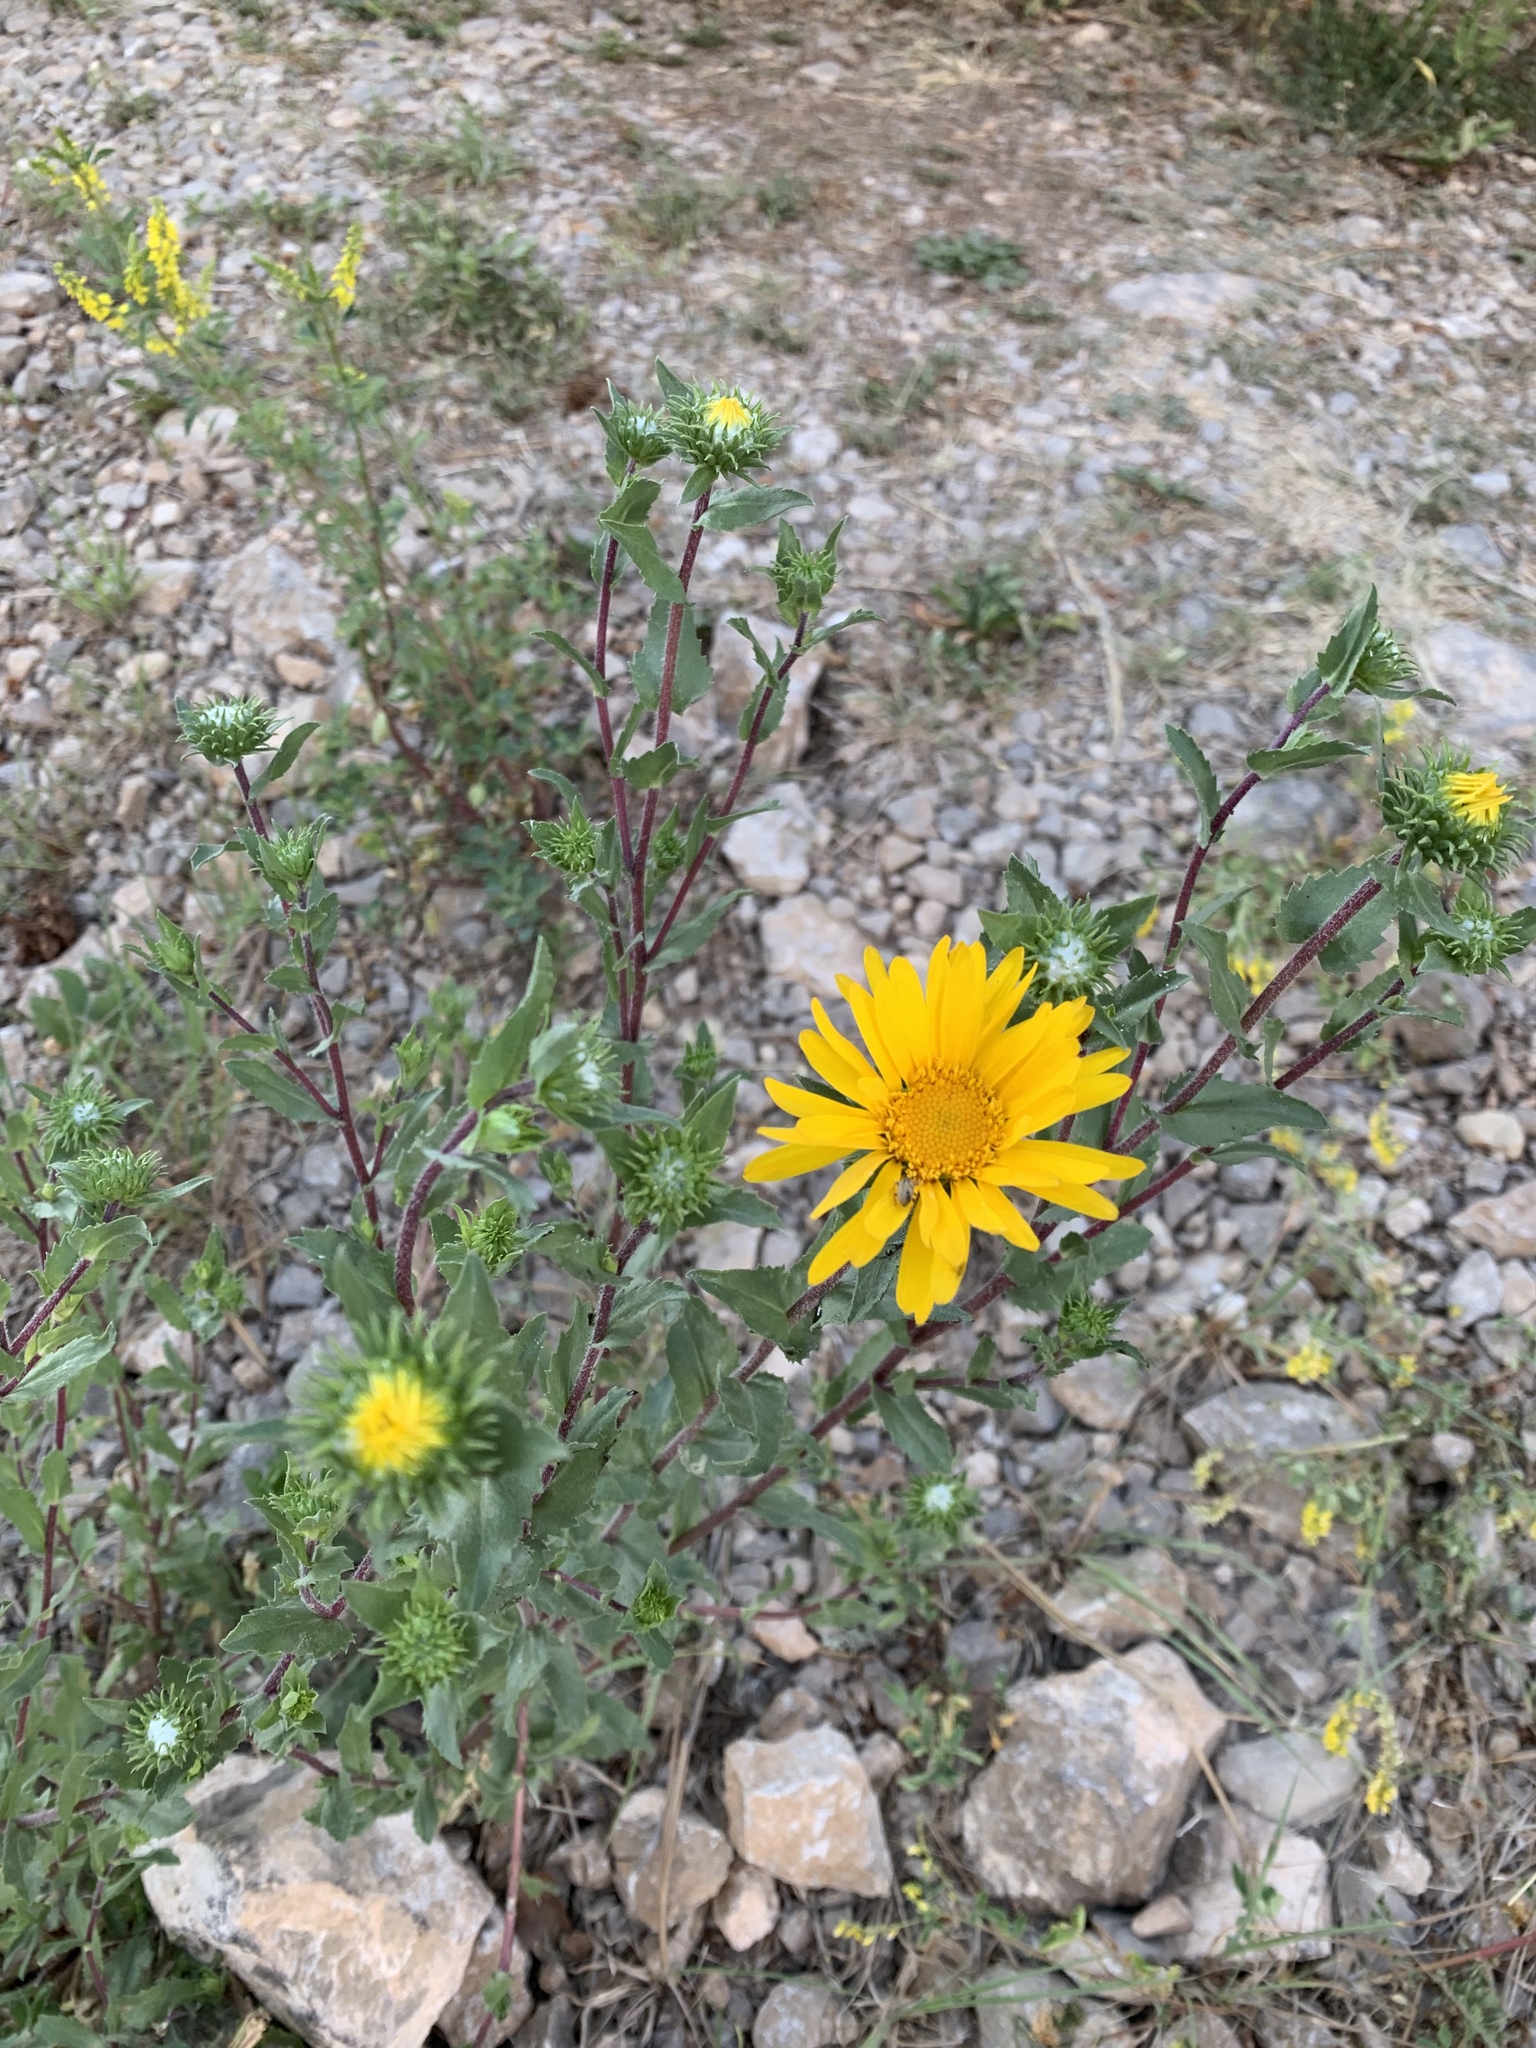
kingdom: Plantae
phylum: Tracheophyta
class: Magnoliopsida
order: Asterales
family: Asteraceae
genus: Grindelia
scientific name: Grindelia scabra
